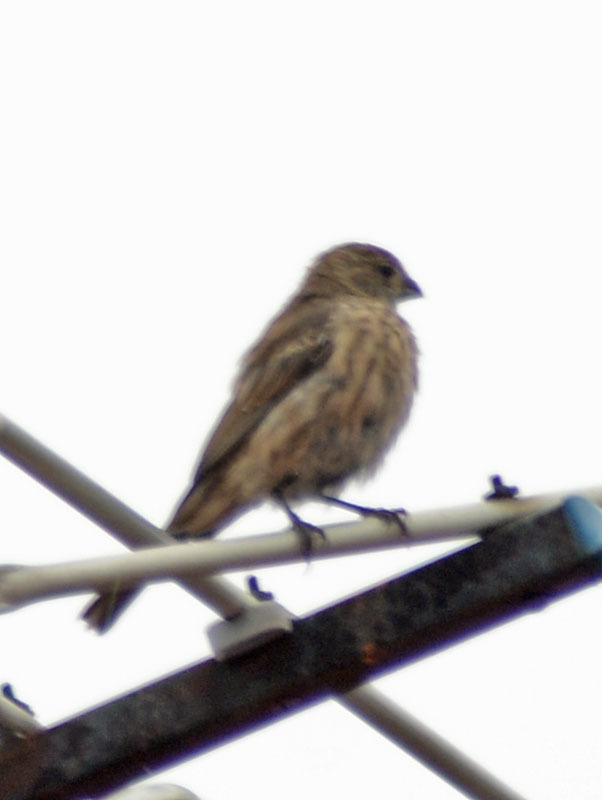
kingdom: Animalia
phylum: Chordata
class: Aves
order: Passeriformes
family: Fringillidae
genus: Haemorhous
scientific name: Haemorhous mexicanus
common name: House finch
